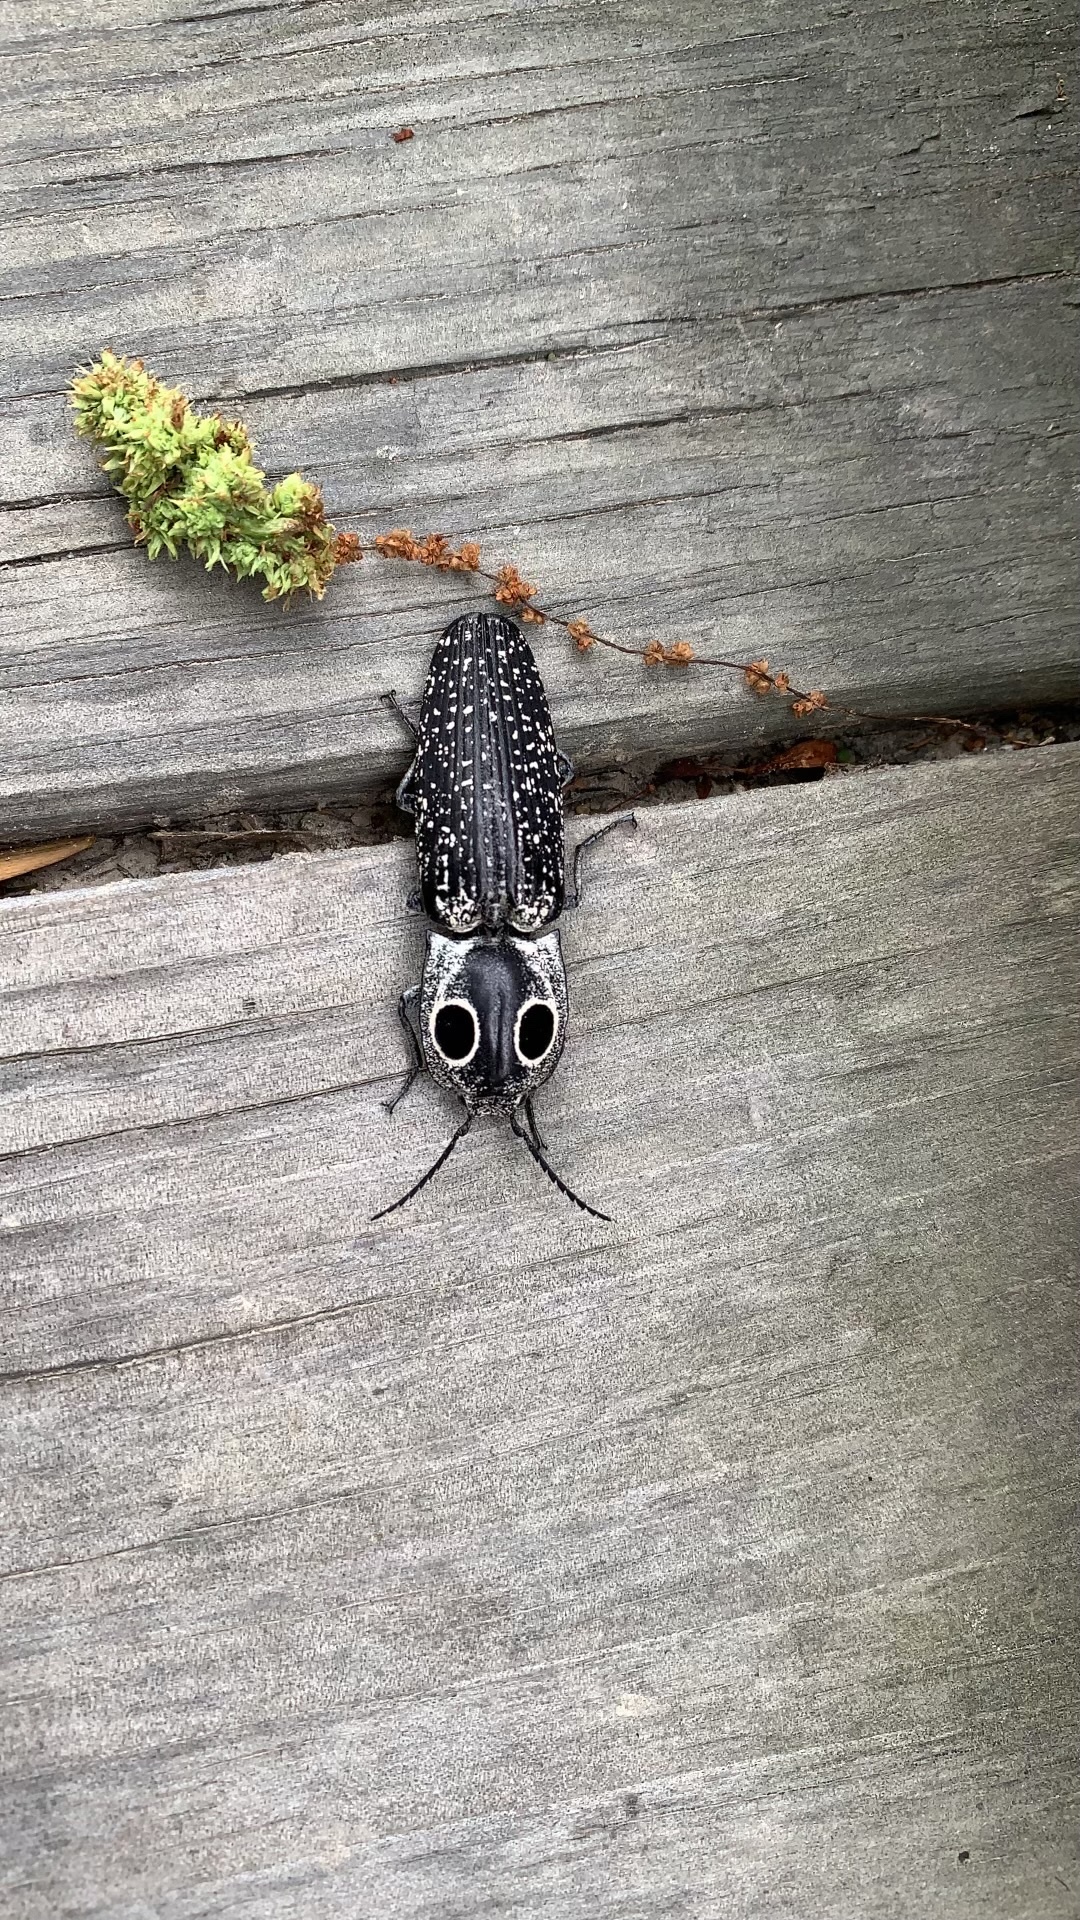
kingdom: Animalia
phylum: Arthropoda
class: Insecta
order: Coleoptera
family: Elateridae
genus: Alaus
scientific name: Alaus oculatus
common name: Eastern eyed click beetle
